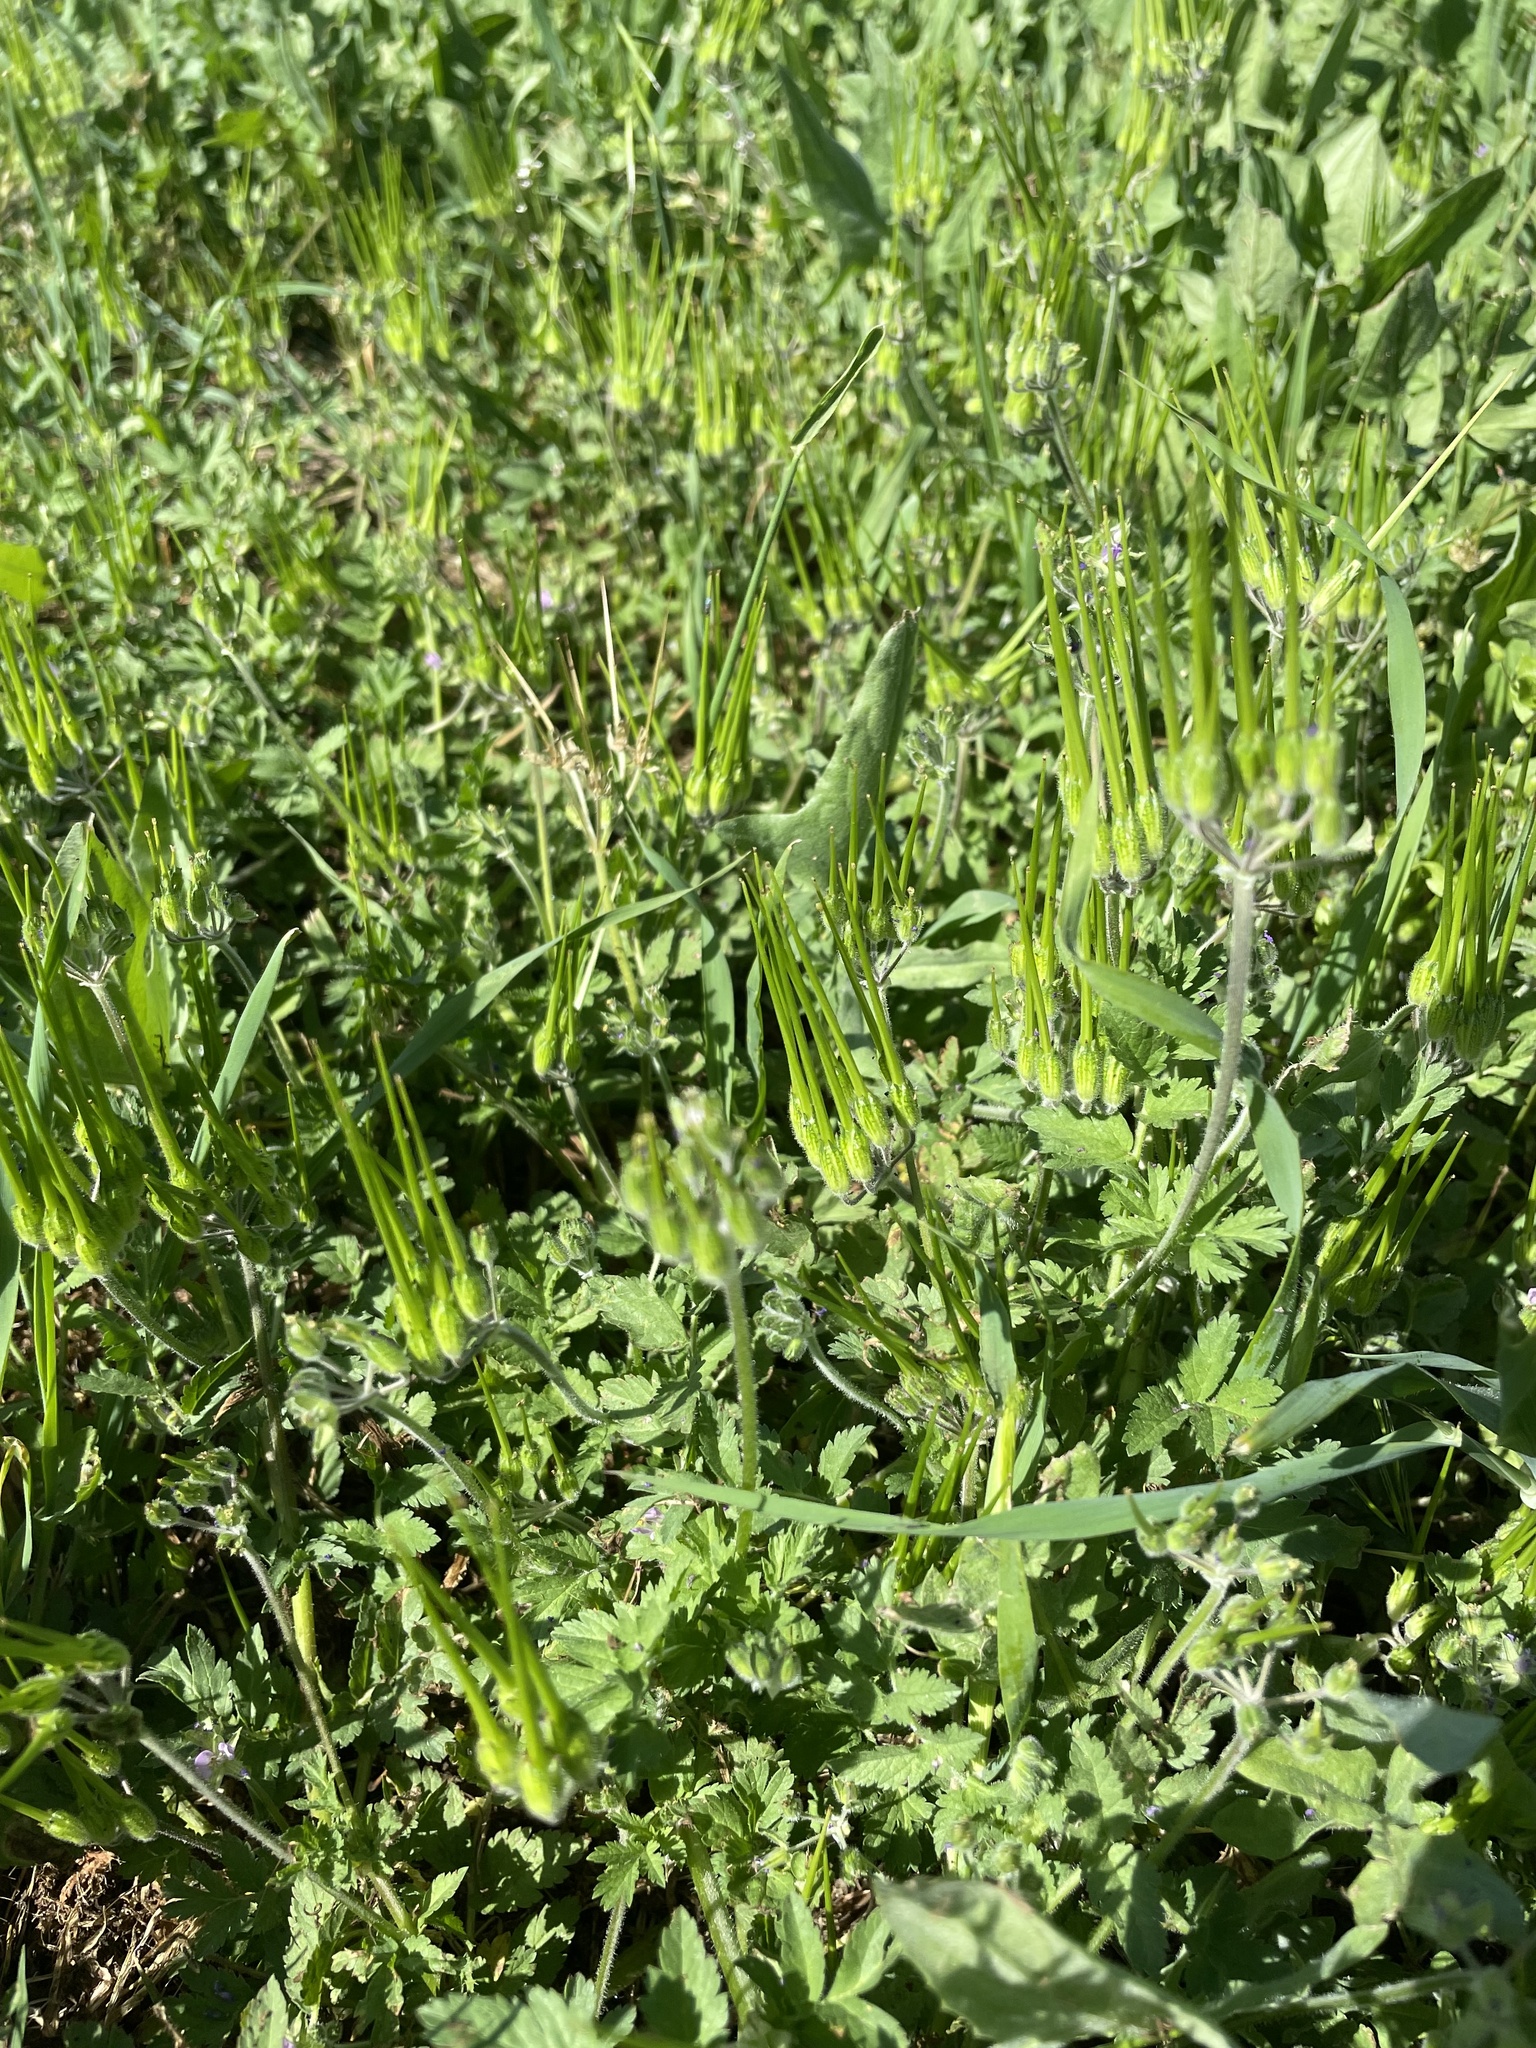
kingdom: Plantae
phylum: Tracheophyta
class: Magnoliopsida
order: Geraniales
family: Geraniaceae
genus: Erodium
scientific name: Erodium moschatum
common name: Musk stork's-bill
